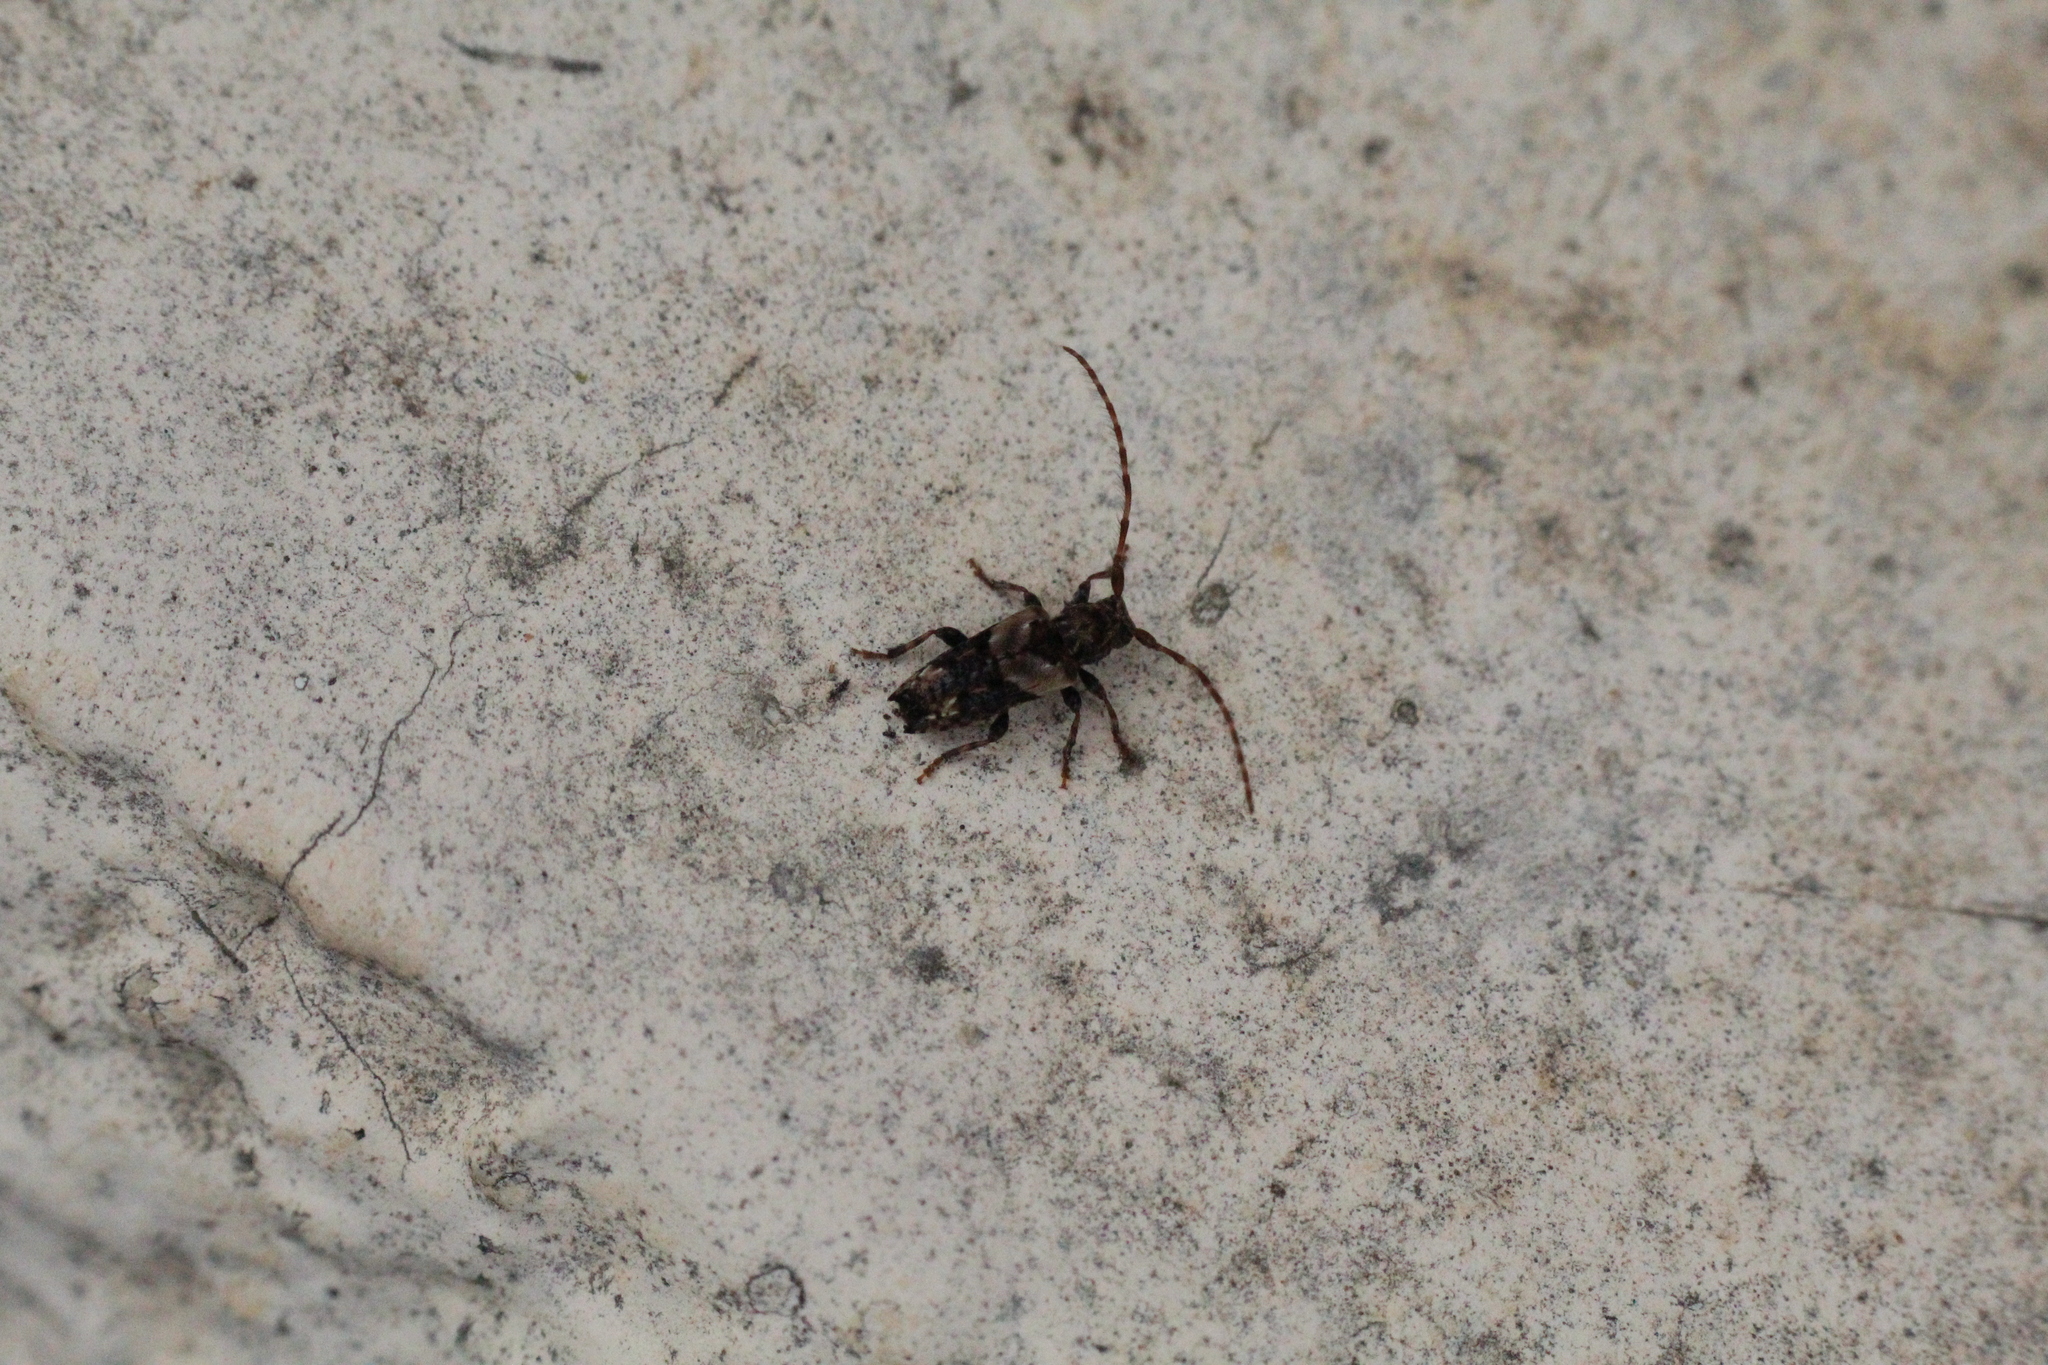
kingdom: Animalia
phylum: Arthropoda
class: Insecta
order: Coleoptera
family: Cerambycidae
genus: Pogonocherus
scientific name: Pogonocherus hispidus
